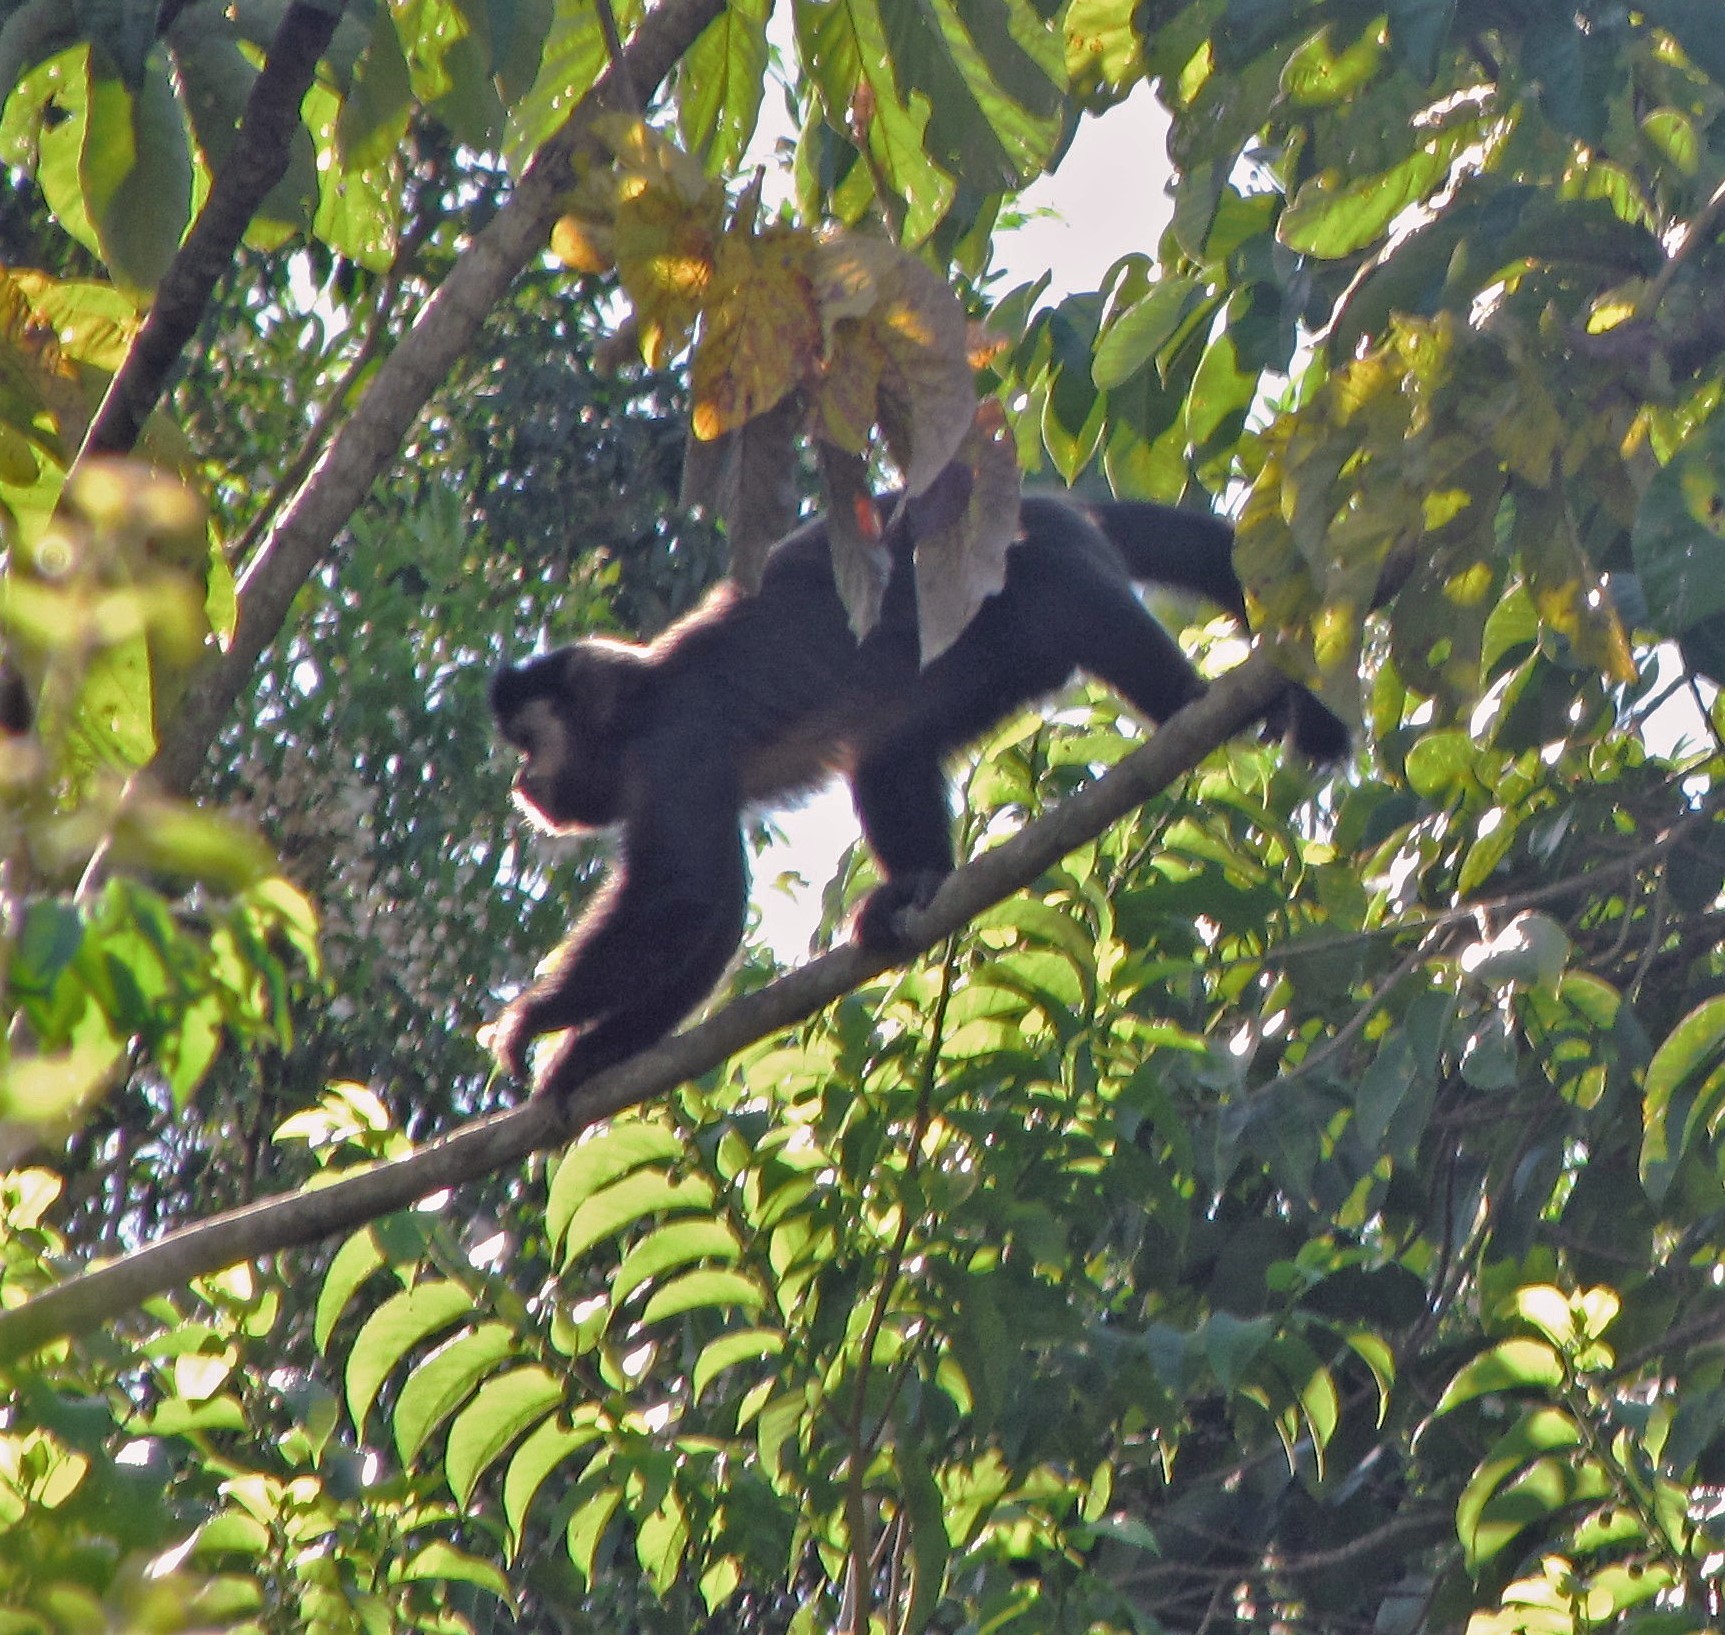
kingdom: Animalia
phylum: Chordata
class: Mammalia
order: Primates
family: Cebidae
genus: Sapajus
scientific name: Sapajus nigritus
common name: Black capuchin
